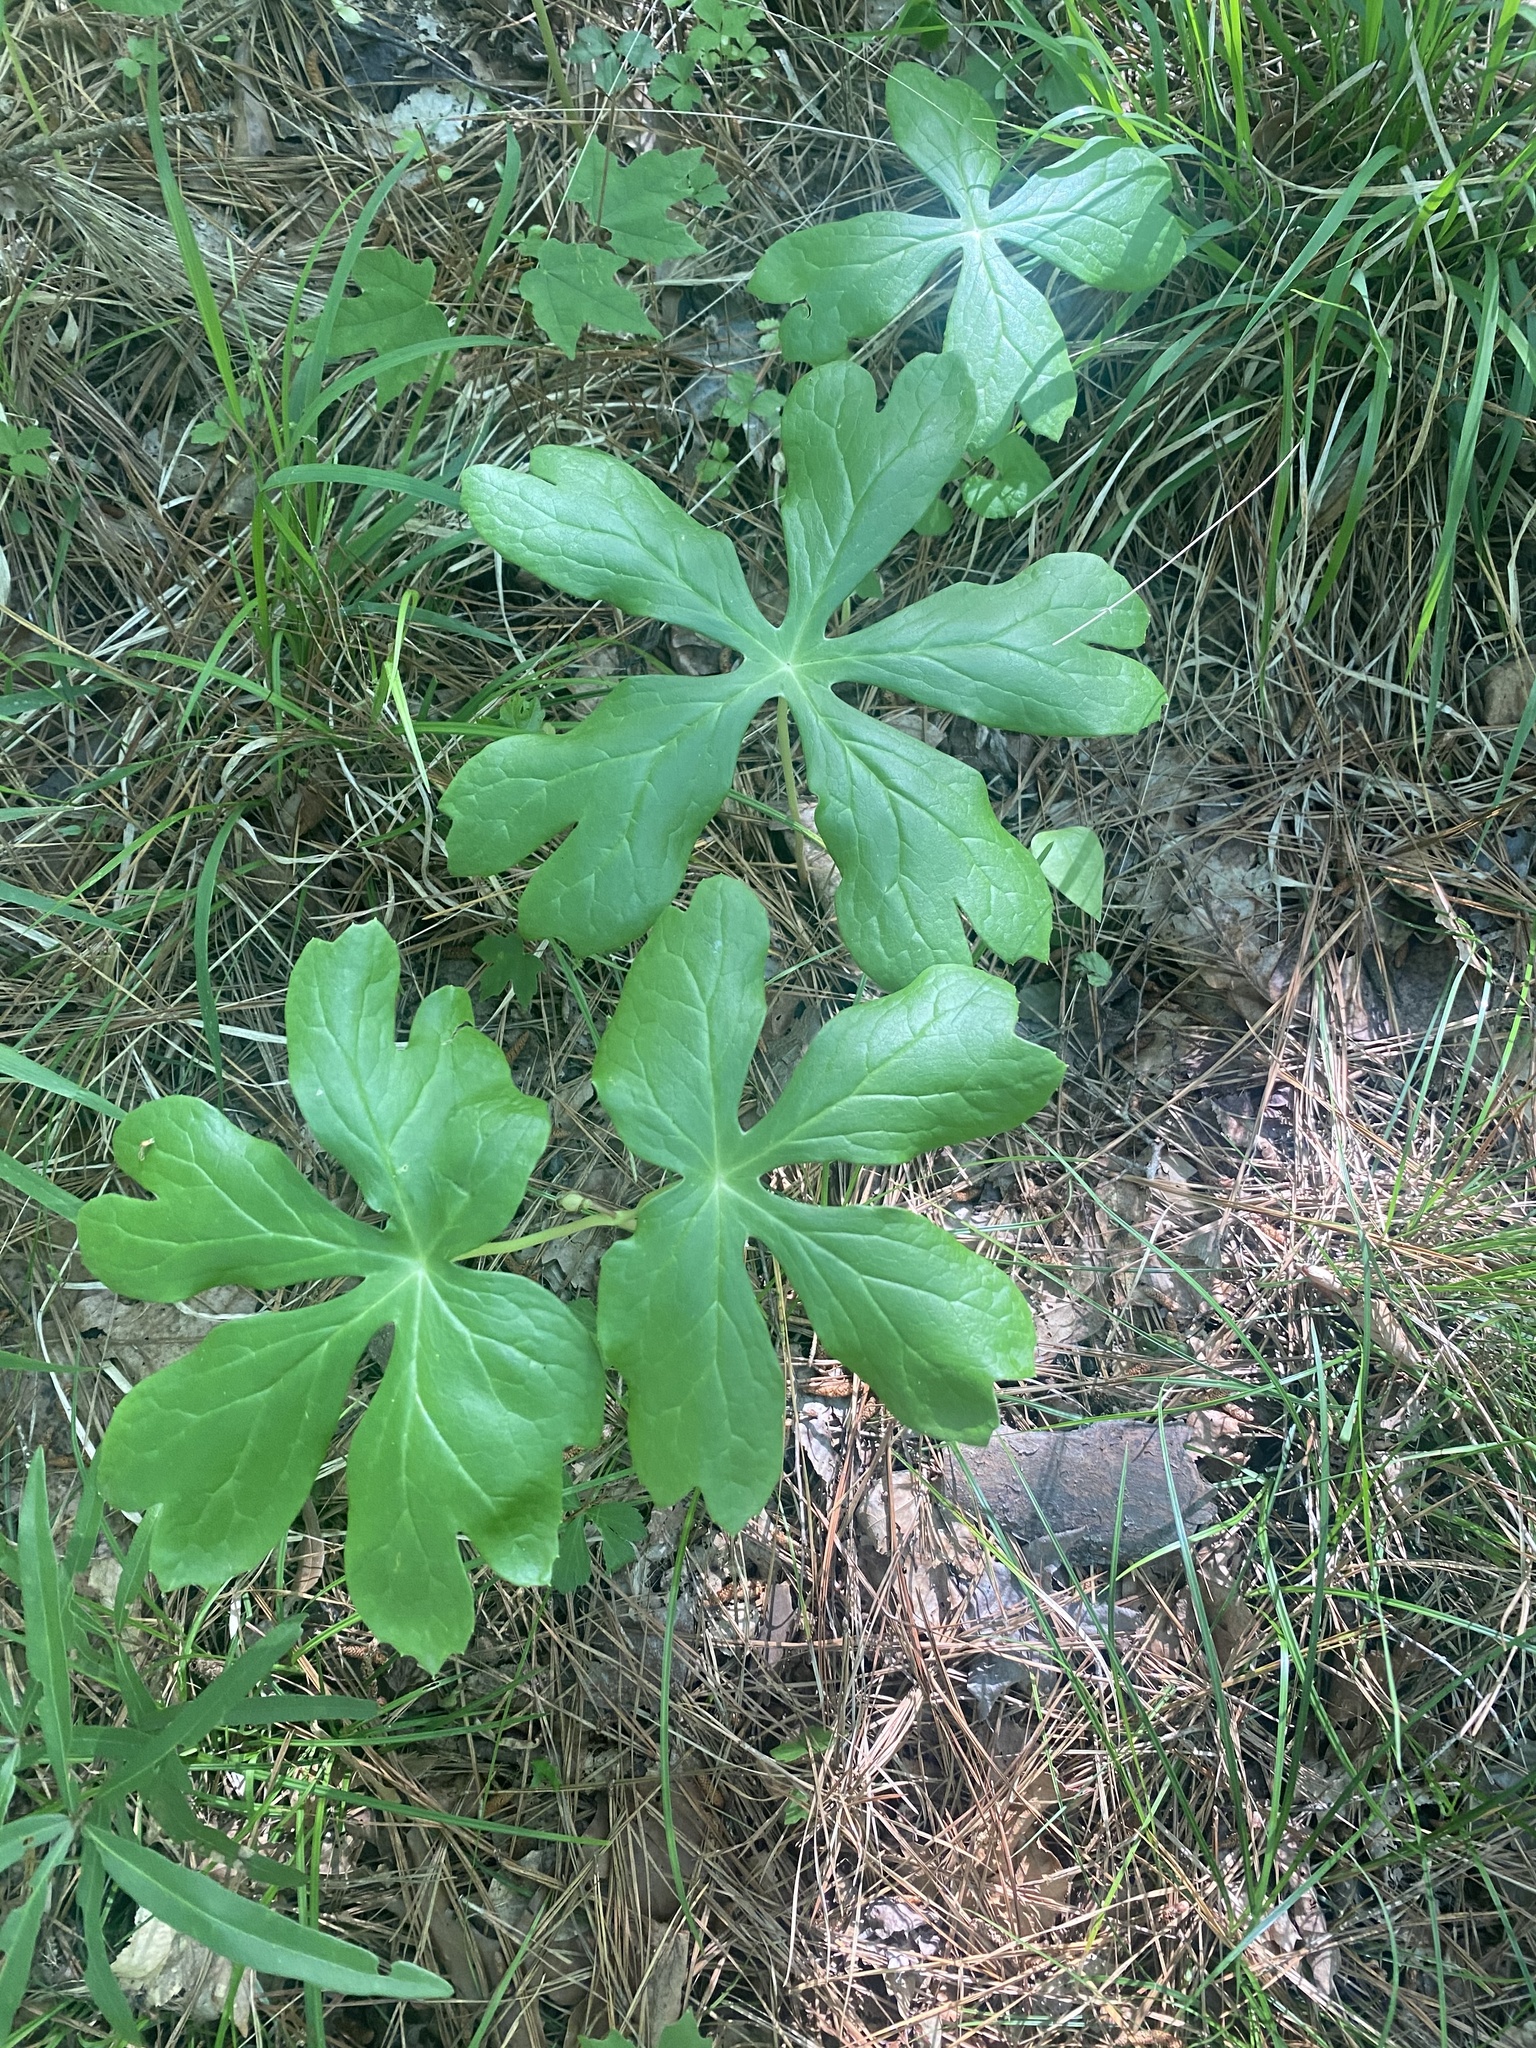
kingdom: Plantae
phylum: Tracheophyta
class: Magnoliopsida
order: Ranunculales
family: Berberidaceae
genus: Podophyllum
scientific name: Podophyllum peltatum
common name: Wild mandrake
